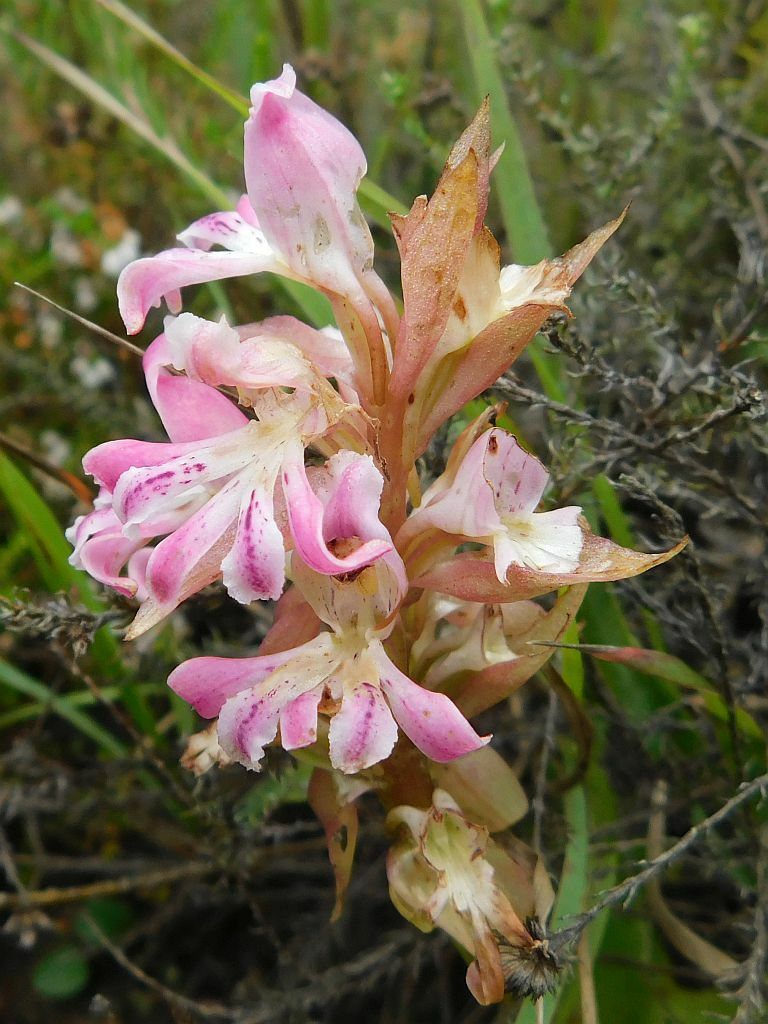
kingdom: Plantae
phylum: Tracheophyta
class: Liliopsida
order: Asparagales
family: Orchidaceae
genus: Satyrium
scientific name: Satyrium erectum
